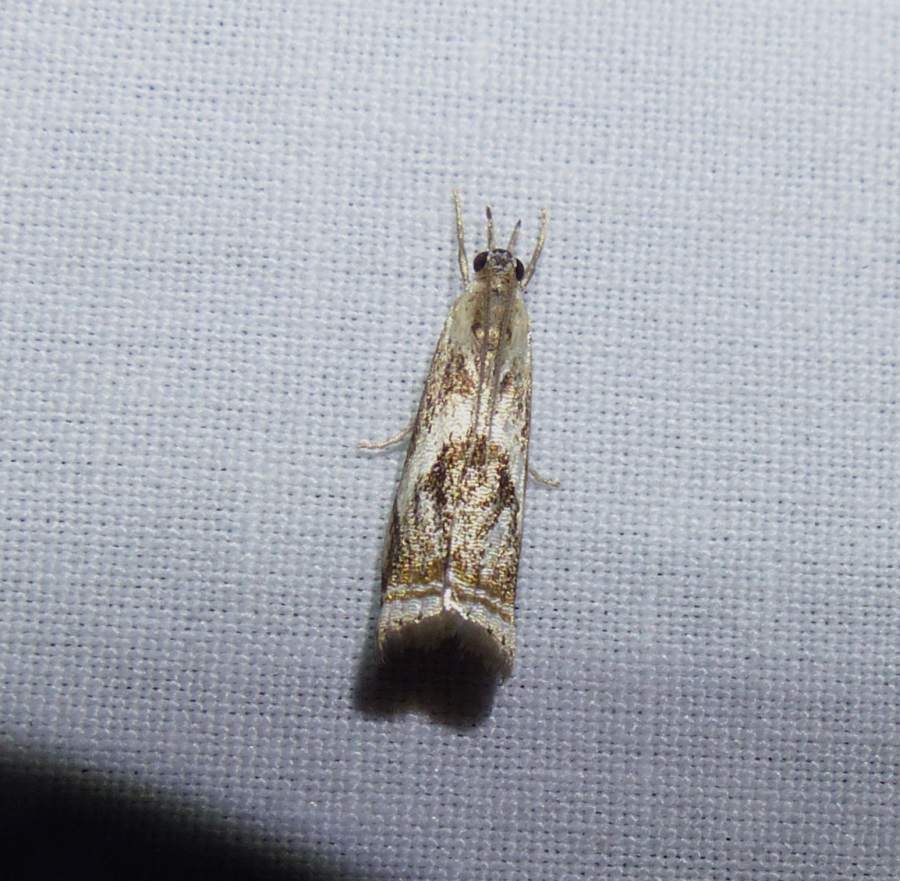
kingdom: Animalia
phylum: Arthropoda
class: Insecta
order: Lepidoptera
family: Crambidae
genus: Microcrambus
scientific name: Microcrambus elegans
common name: Elegant grass-veneer
